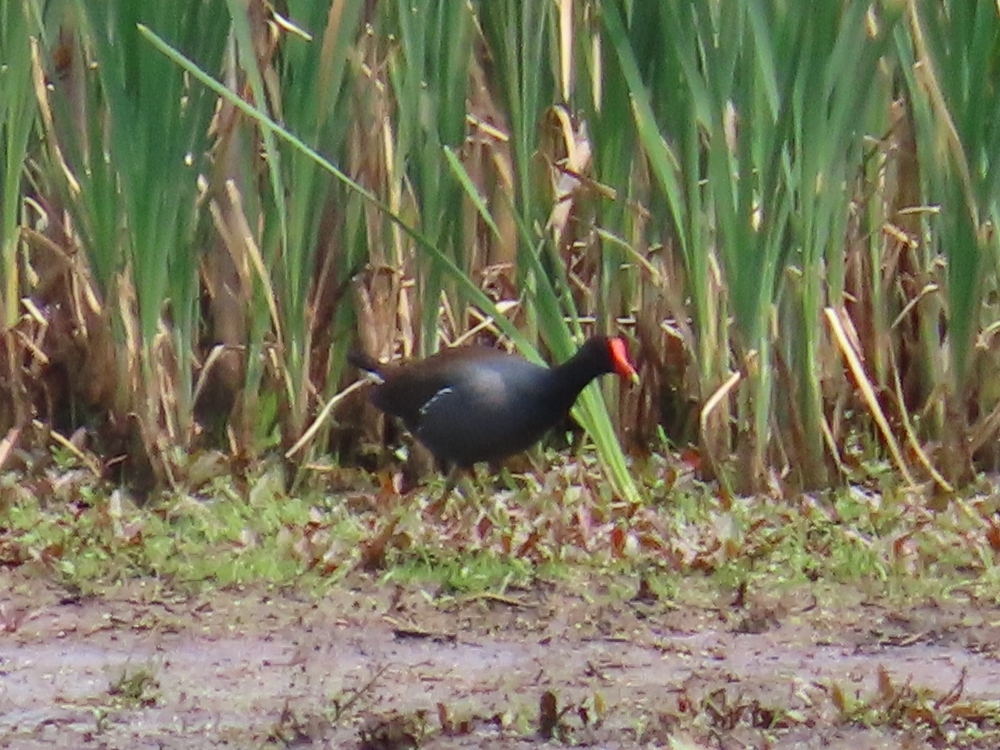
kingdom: Animalia
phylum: Chordata
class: Aves
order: Gruiformes
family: Rallidae
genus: Gallinula
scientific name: Gallinula chloropus
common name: Common moorhen
